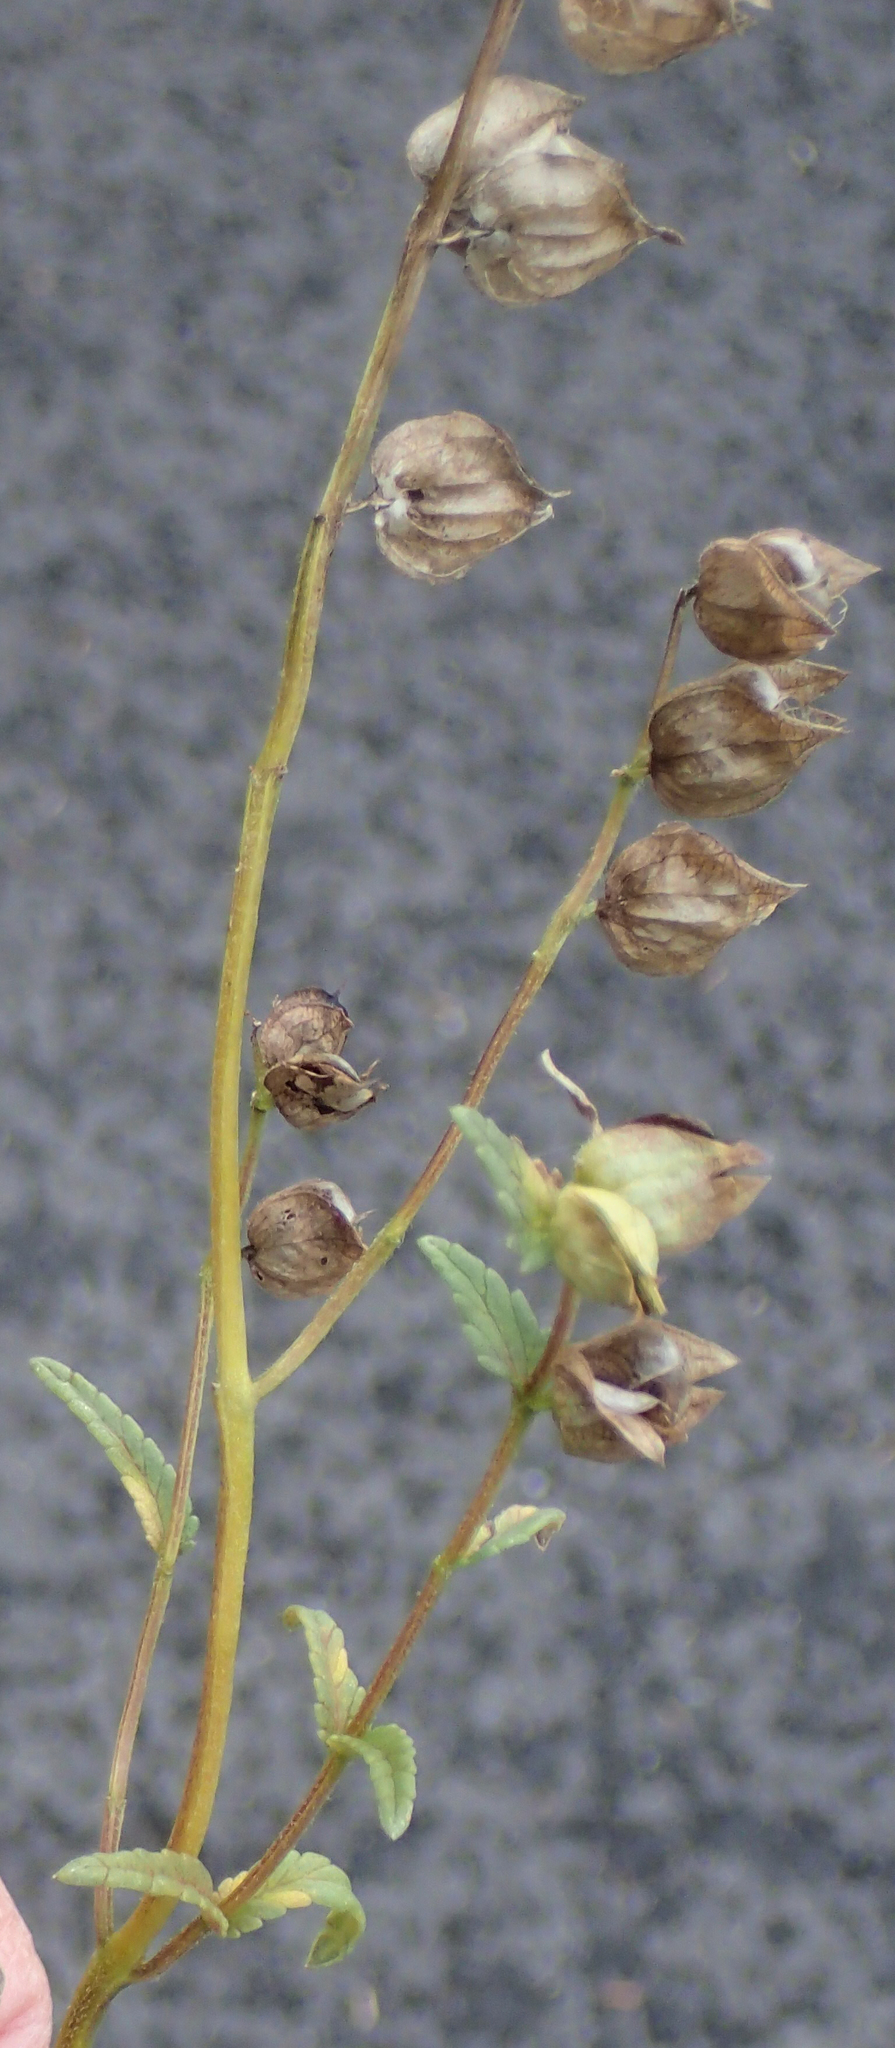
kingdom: Plantae
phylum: Tracheophyta
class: Magnoliopsida
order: Lamiales
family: Orobanchaceae
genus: Rhinanthus
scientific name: Rhinanthus minor
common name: Yellow-rattle
